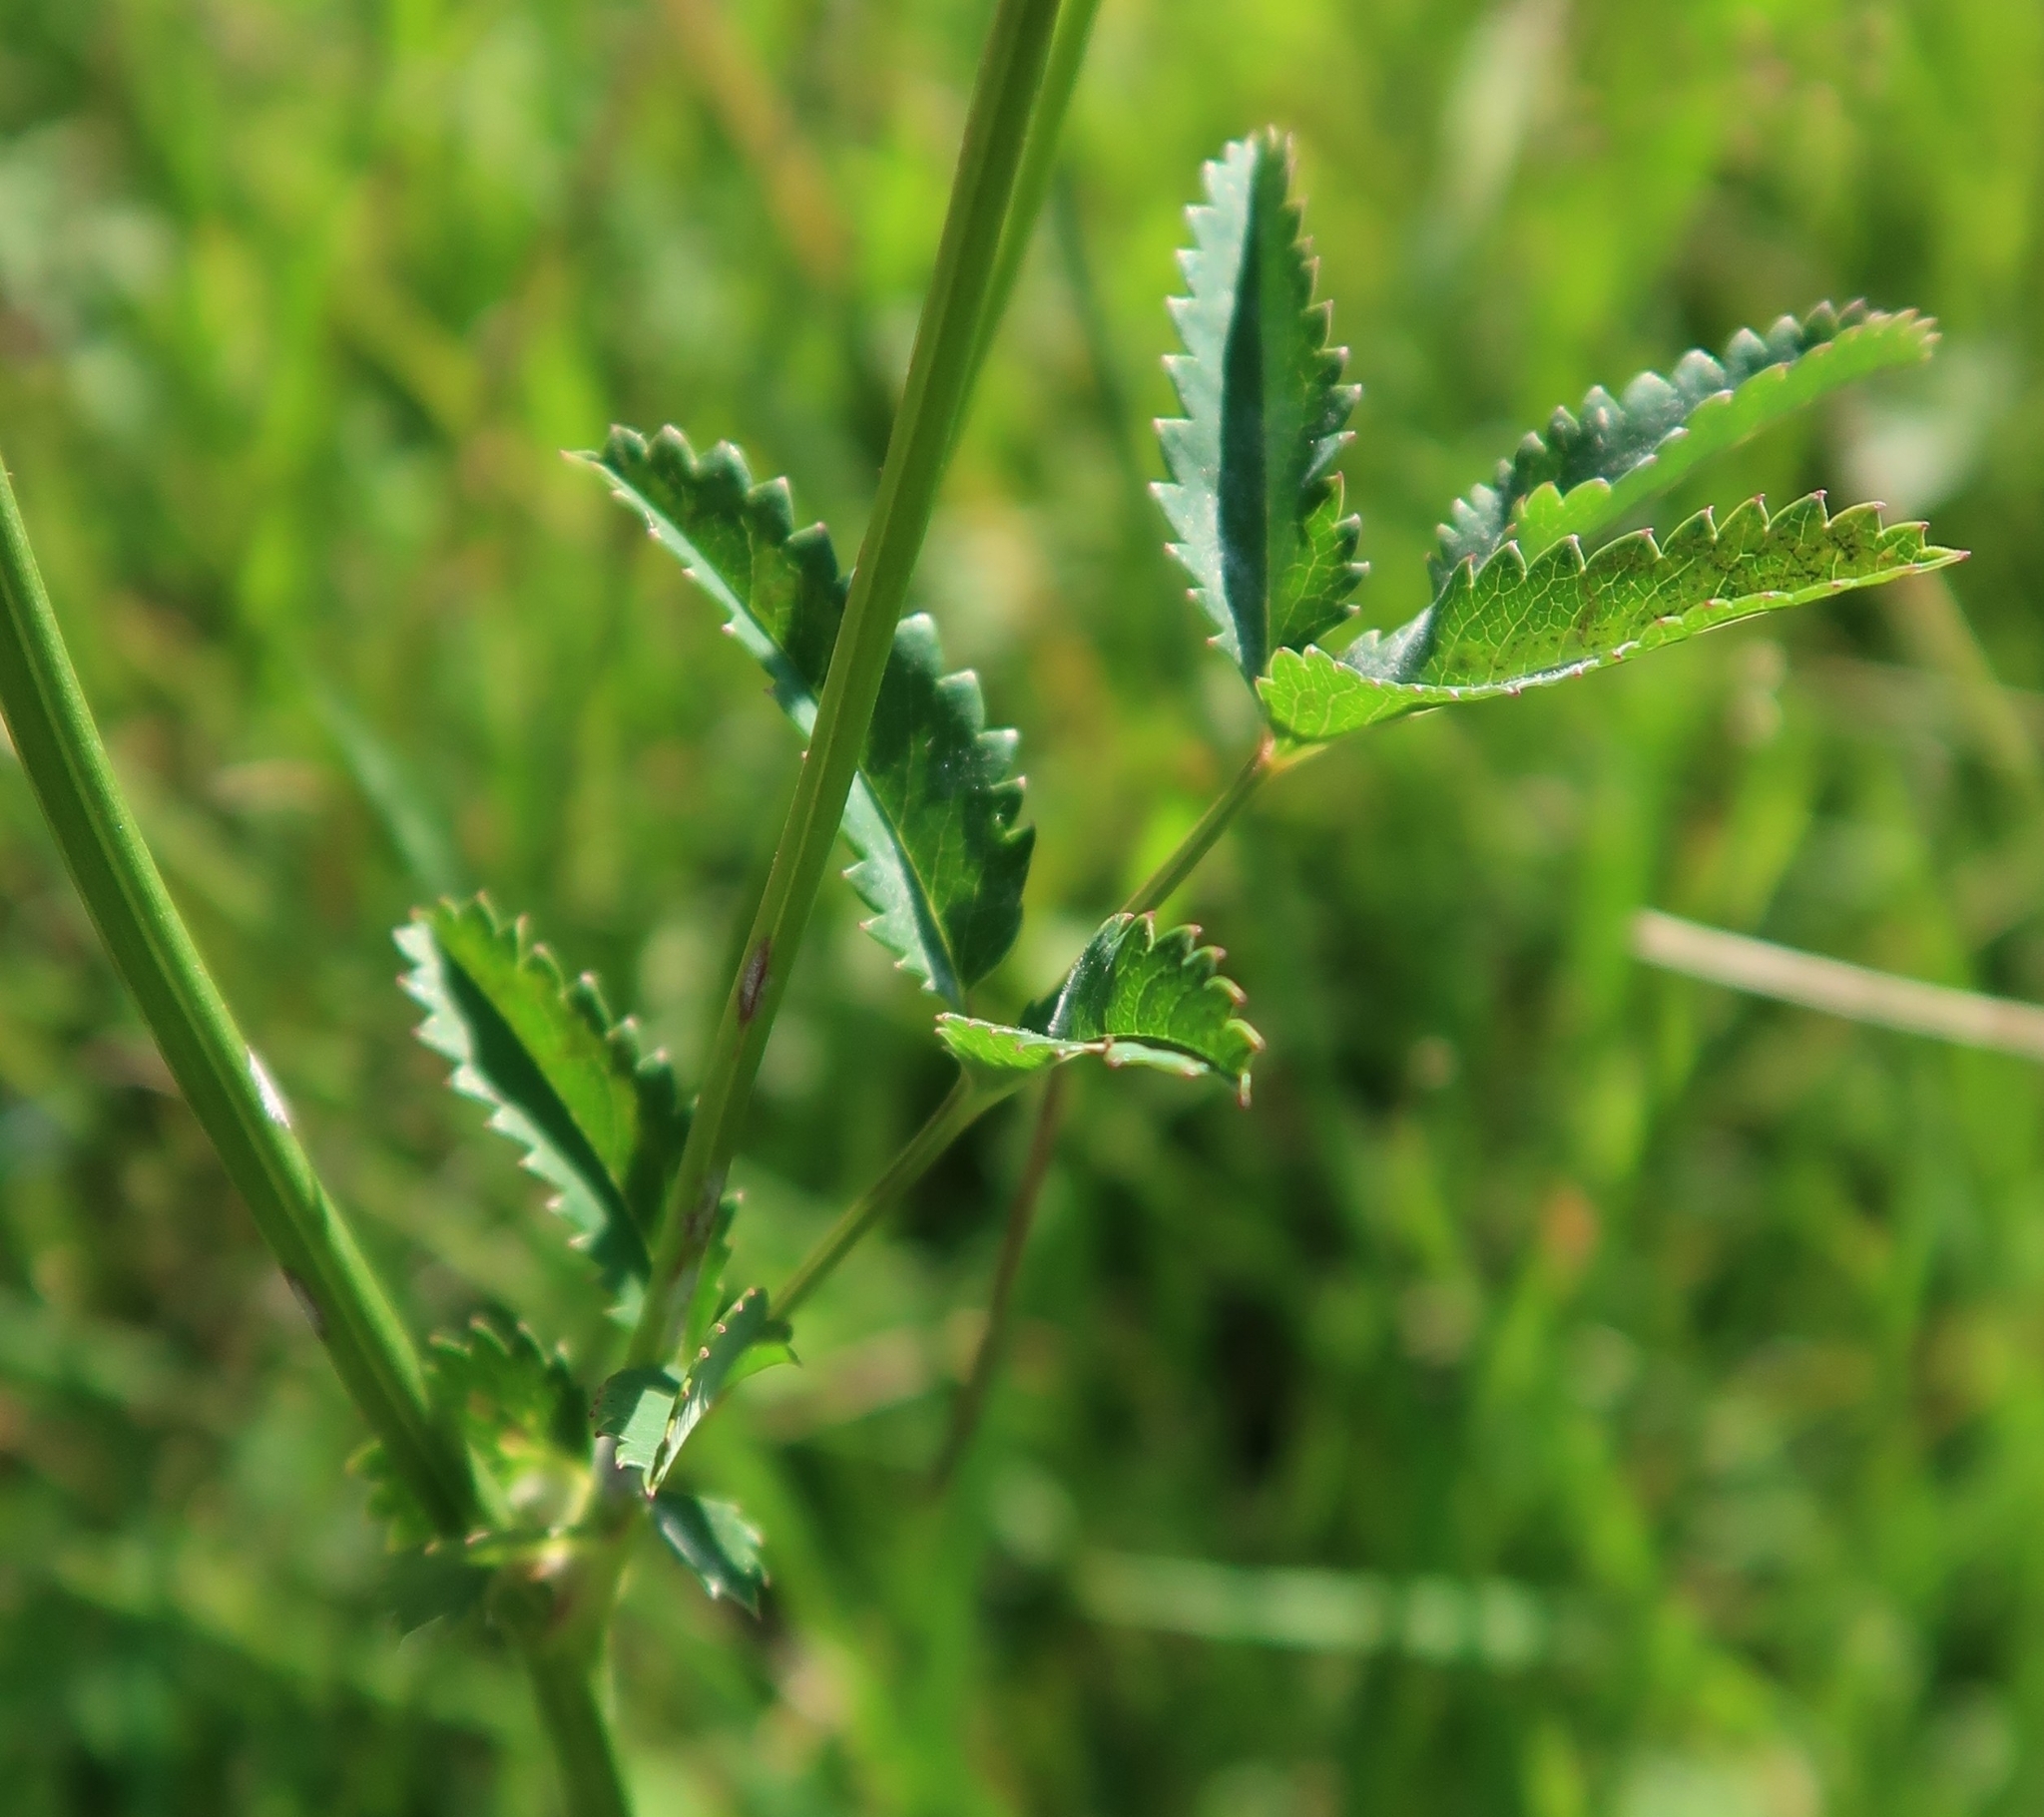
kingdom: Plantae
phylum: Tracheophyta
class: Magnoliopsida
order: Rosales
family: Rosaceae
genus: Sanguisorba
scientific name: Sanguisorba officinalis
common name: Great burnet
